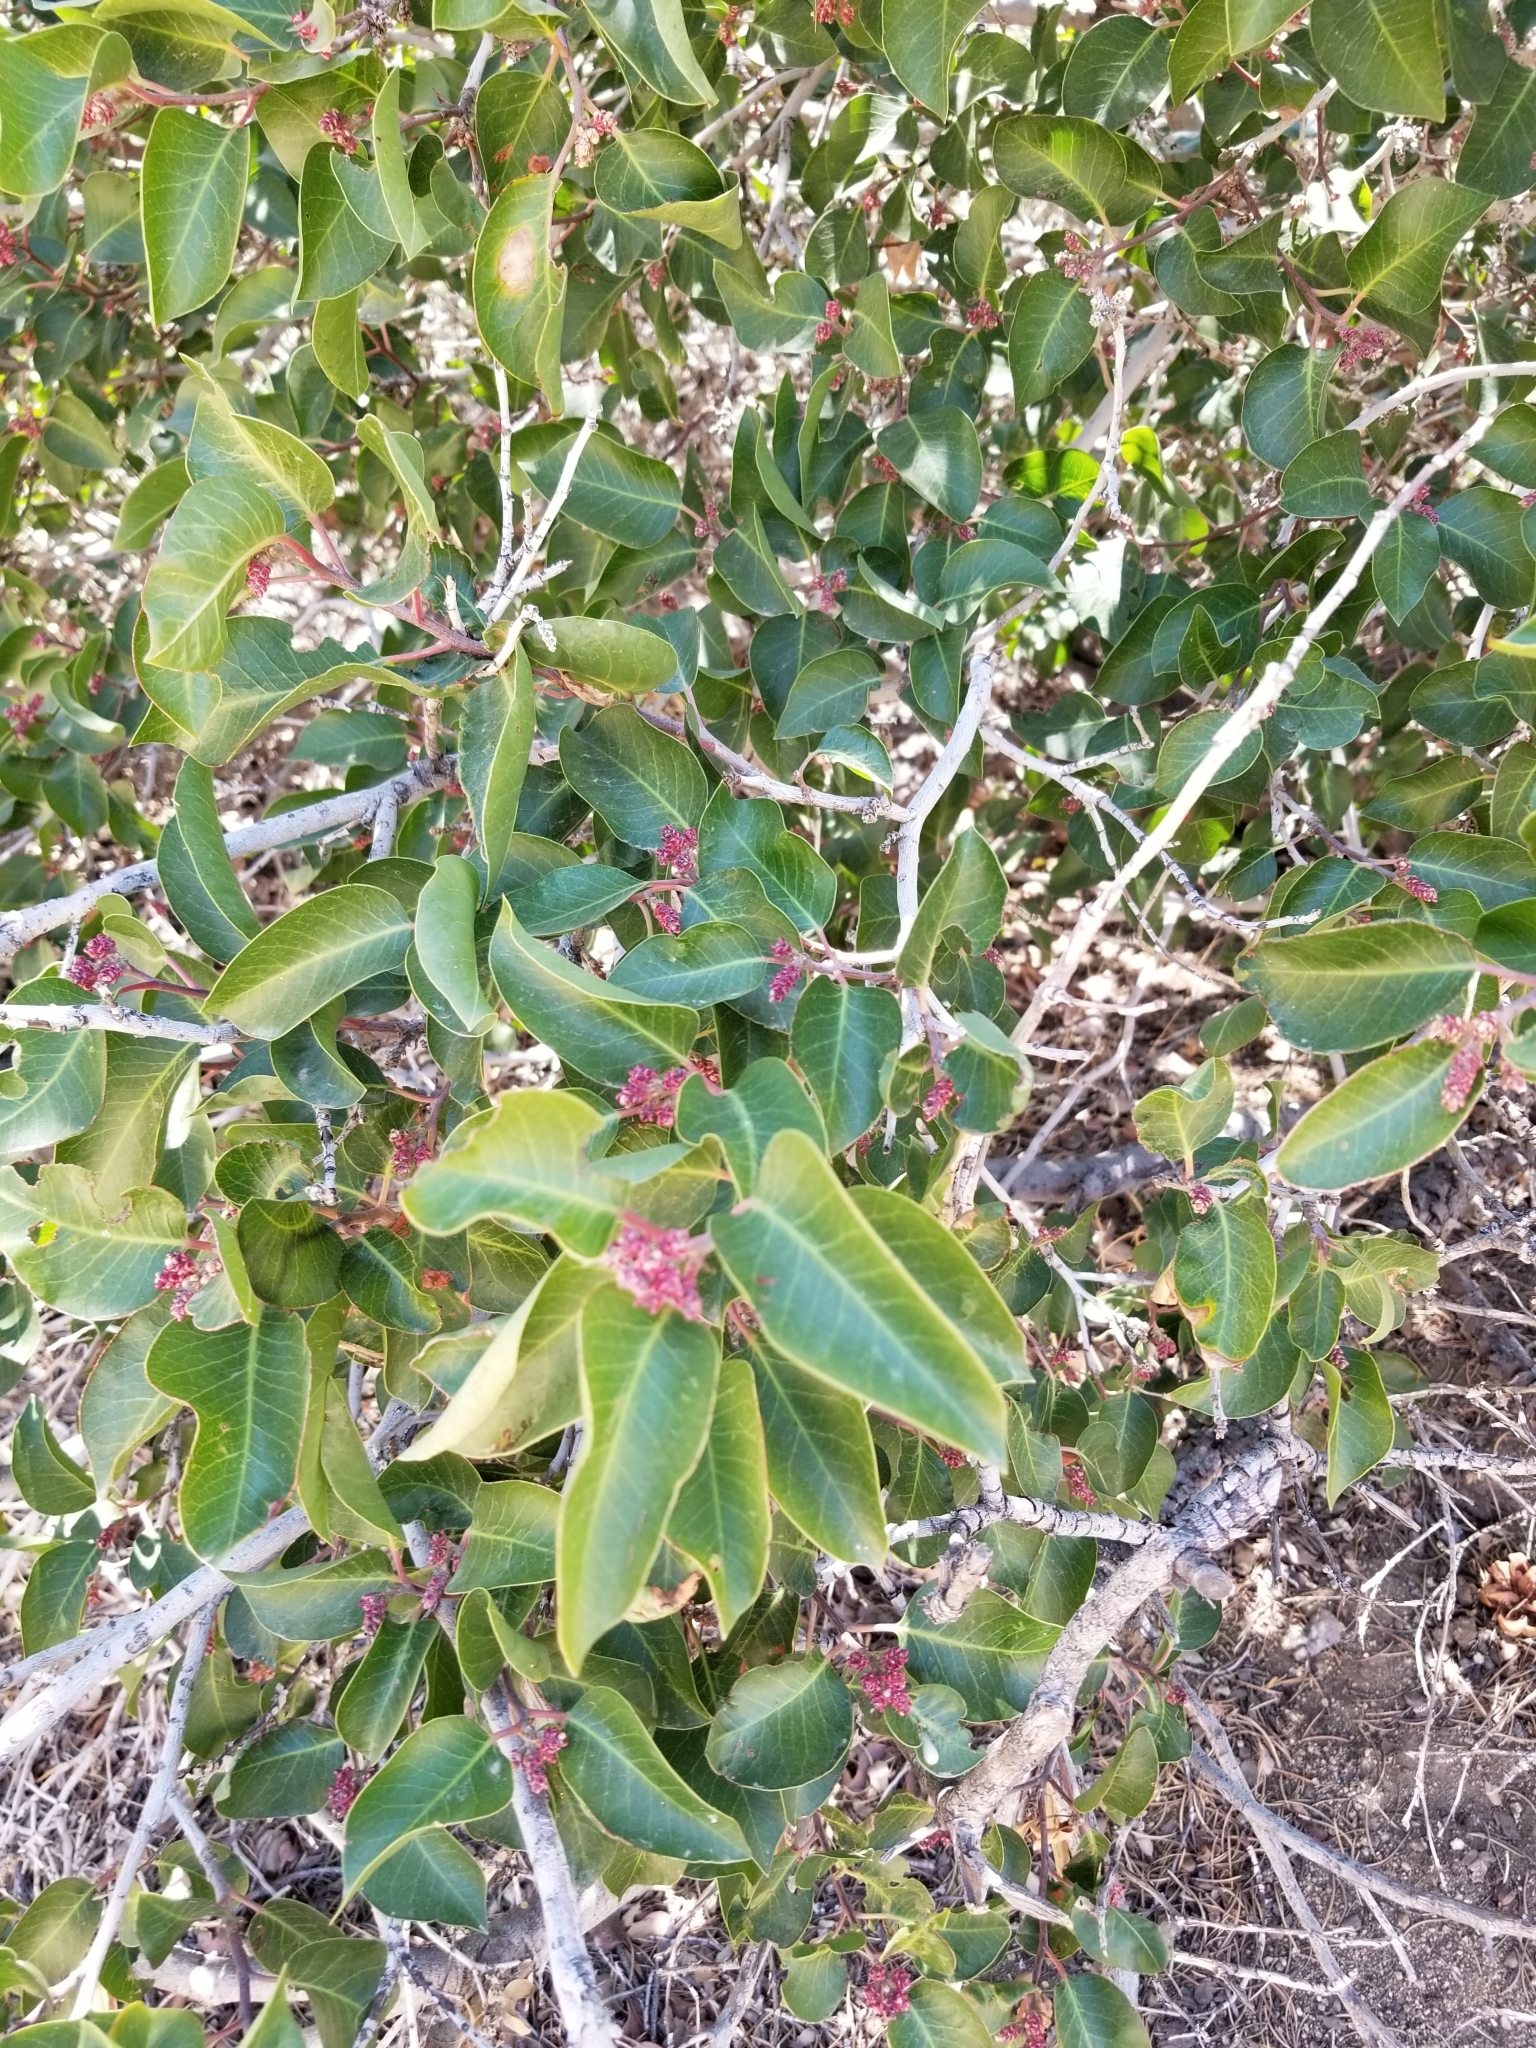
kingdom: Plantae
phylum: Tracheophyta
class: Magnoliopsida
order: Sapindales
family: Anacardiaceae
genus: Rhus
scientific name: Rhus ovata
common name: Sugar sumac
